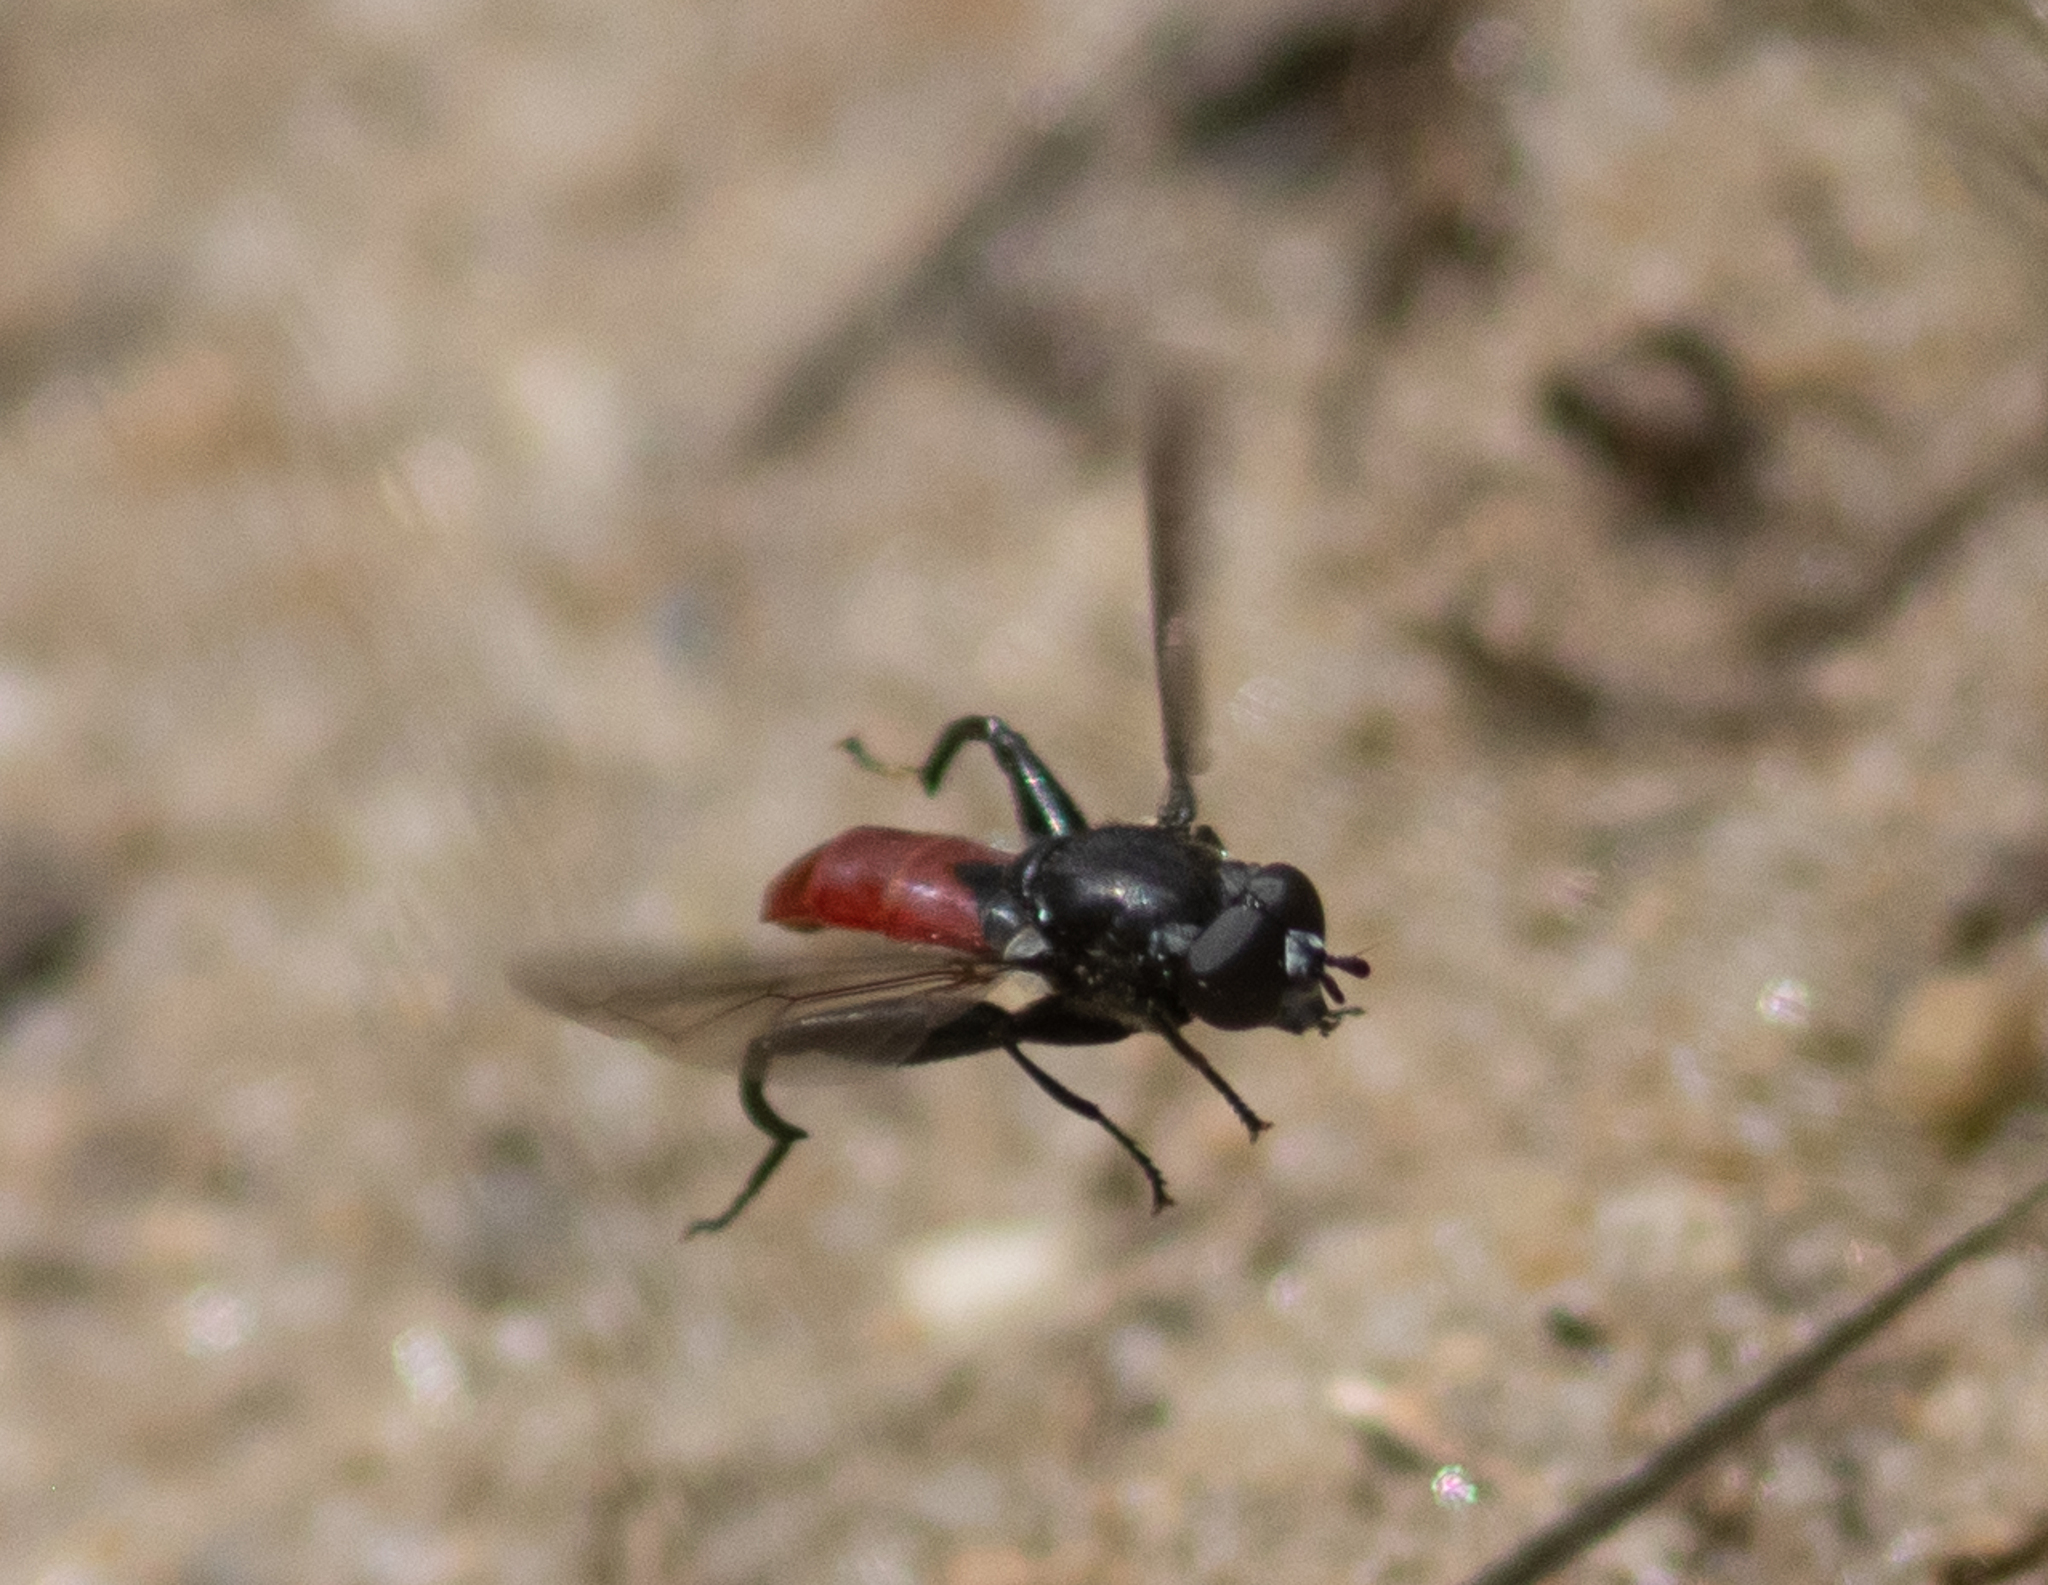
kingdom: Animalia
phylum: Arthropoda
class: Insecta
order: Diptera
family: Syrphidae
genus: Chalcosyrphus
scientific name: Chalcosyrphus piger
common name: Short-haired leafwalker
